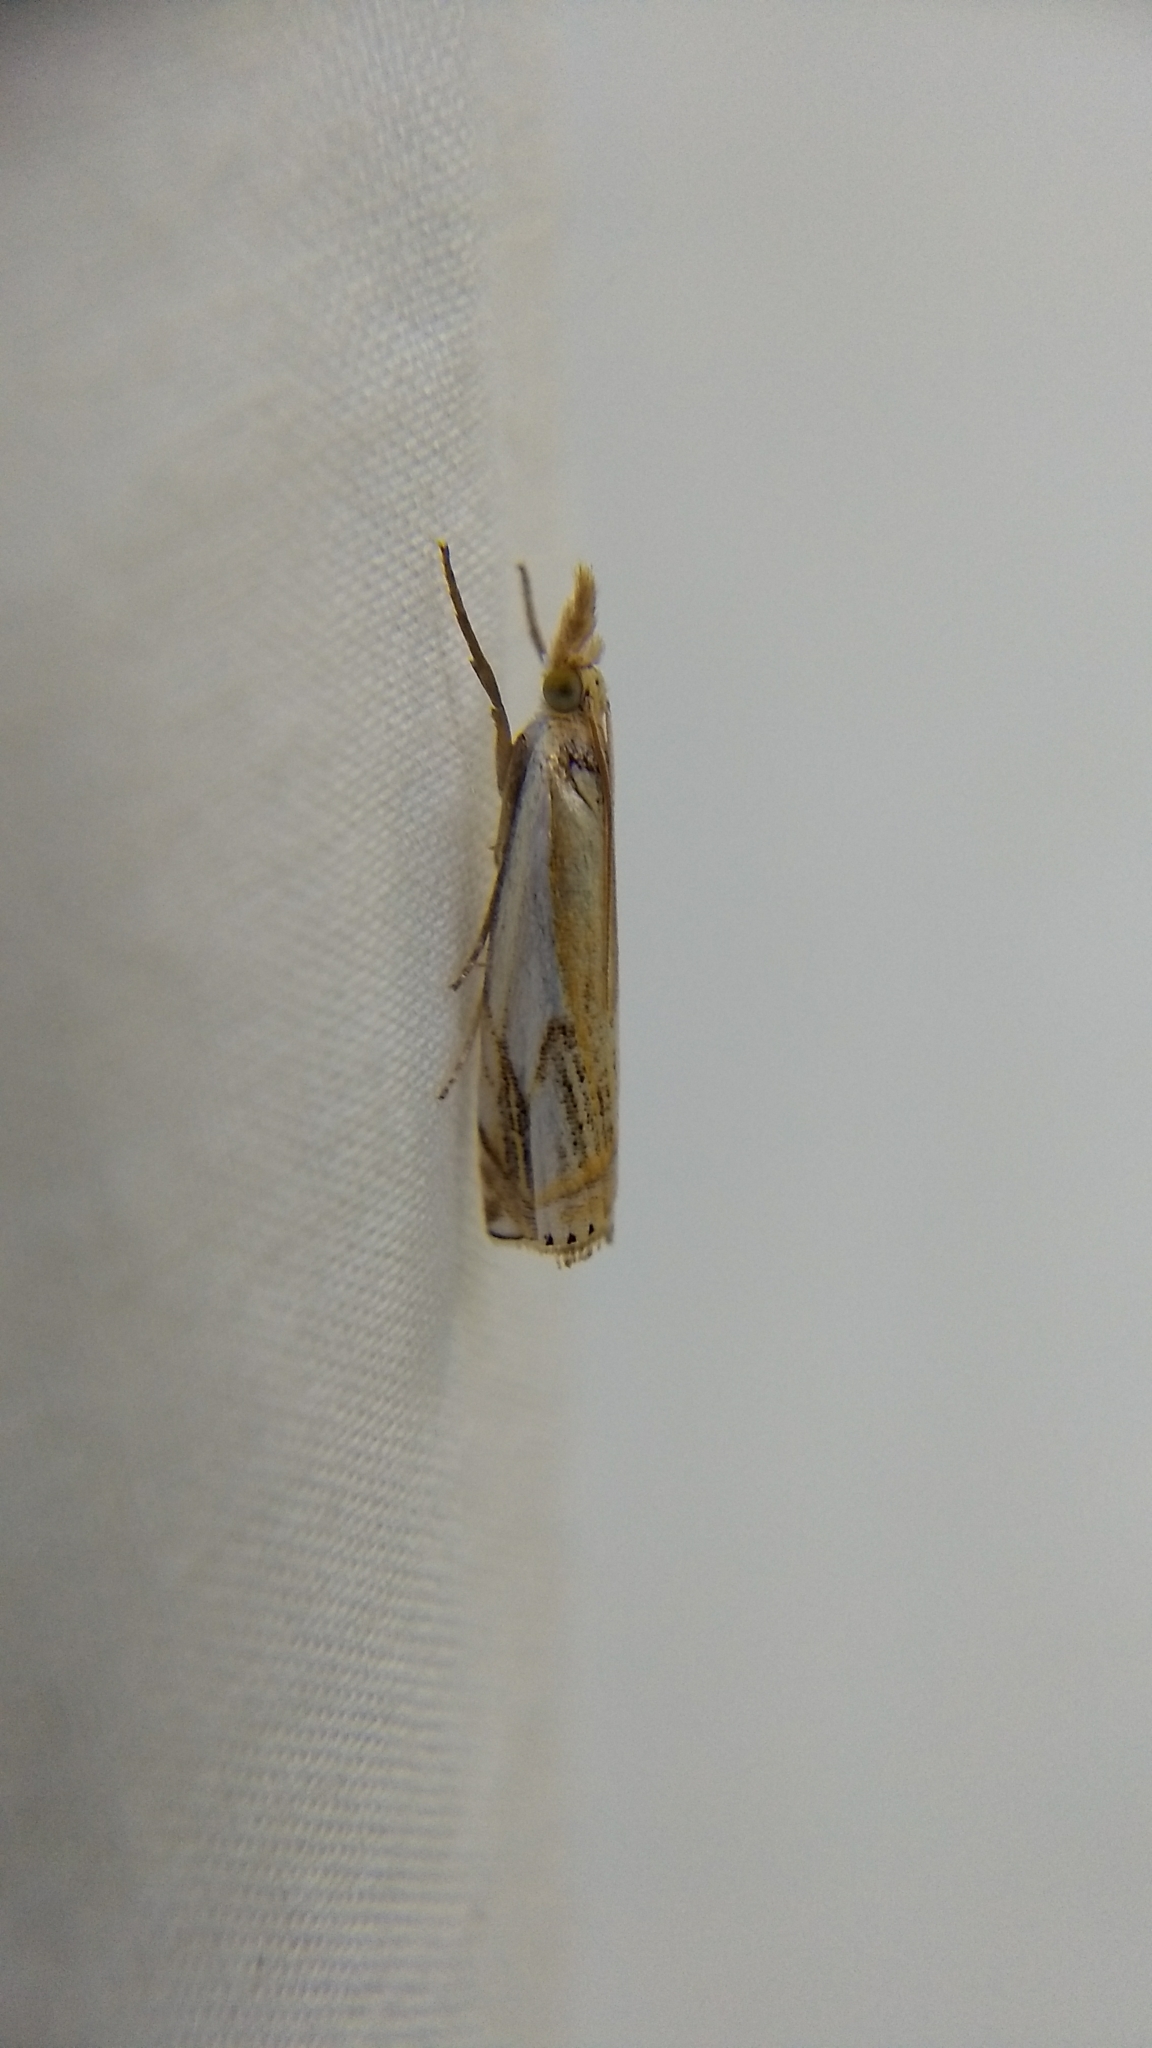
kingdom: Animalia
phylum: Arthropoda
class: Insecta
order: Lepidoptera
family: Crambidae
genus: Crambus
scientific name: Crambus agitatellus
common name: Double-banded grass-veneer
